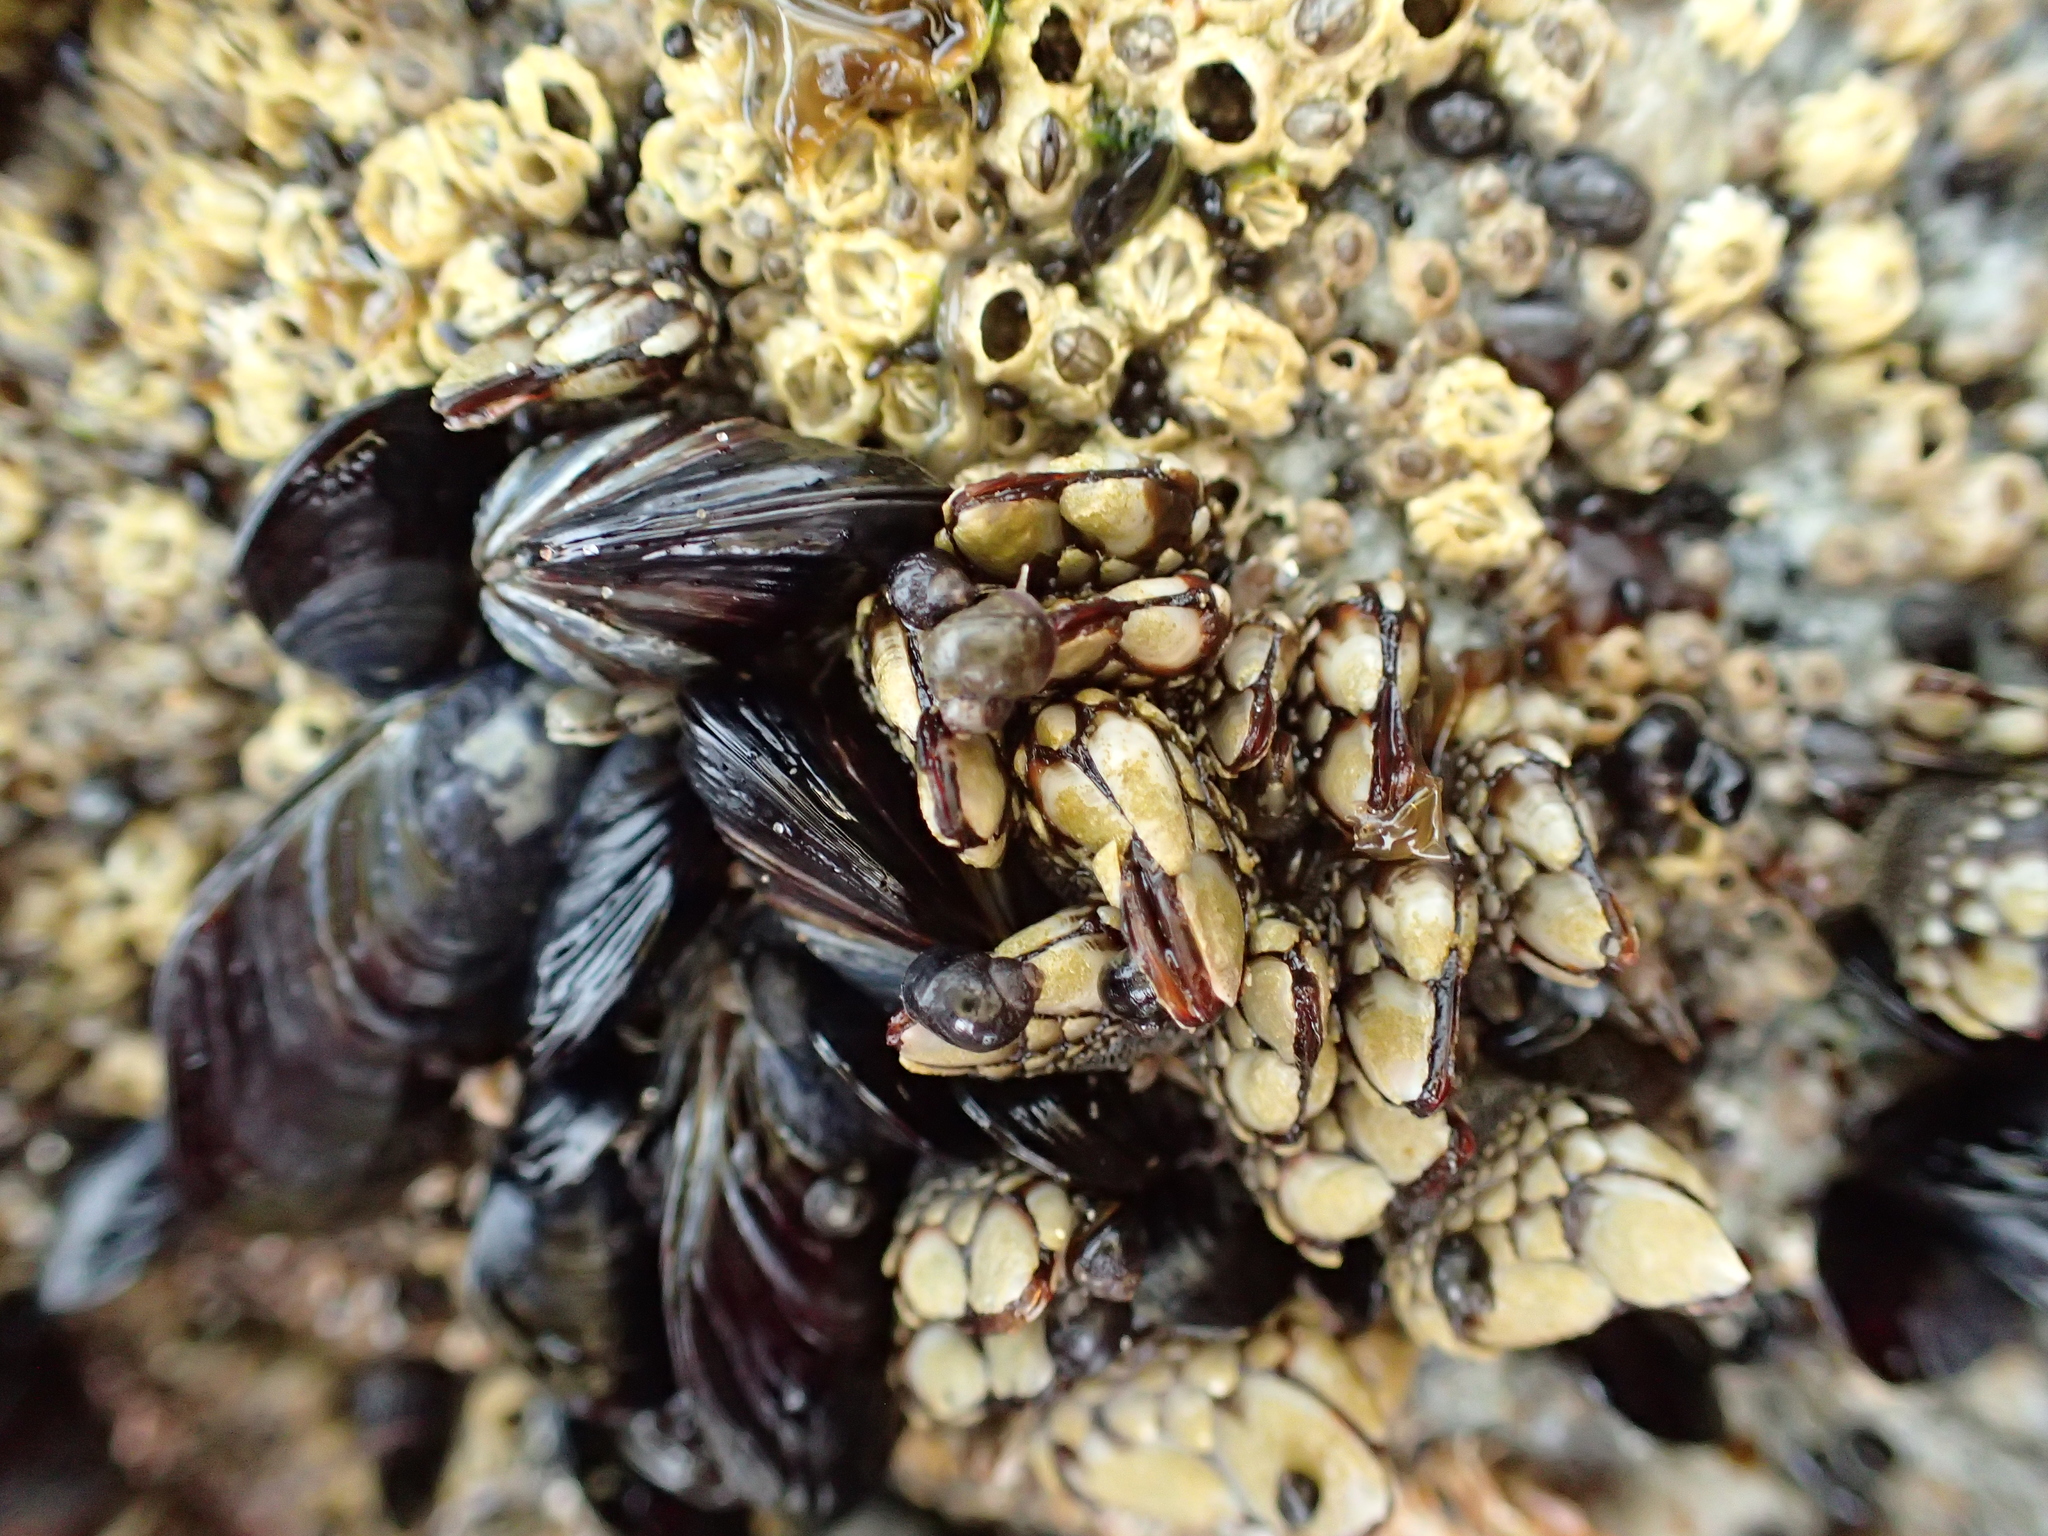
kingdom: Animalia
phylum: Arthropoda
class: Maxillopoda
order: Pedunculata
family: Pollicipedidae
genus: Pollicipes
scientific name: Pollicipes polymerus
